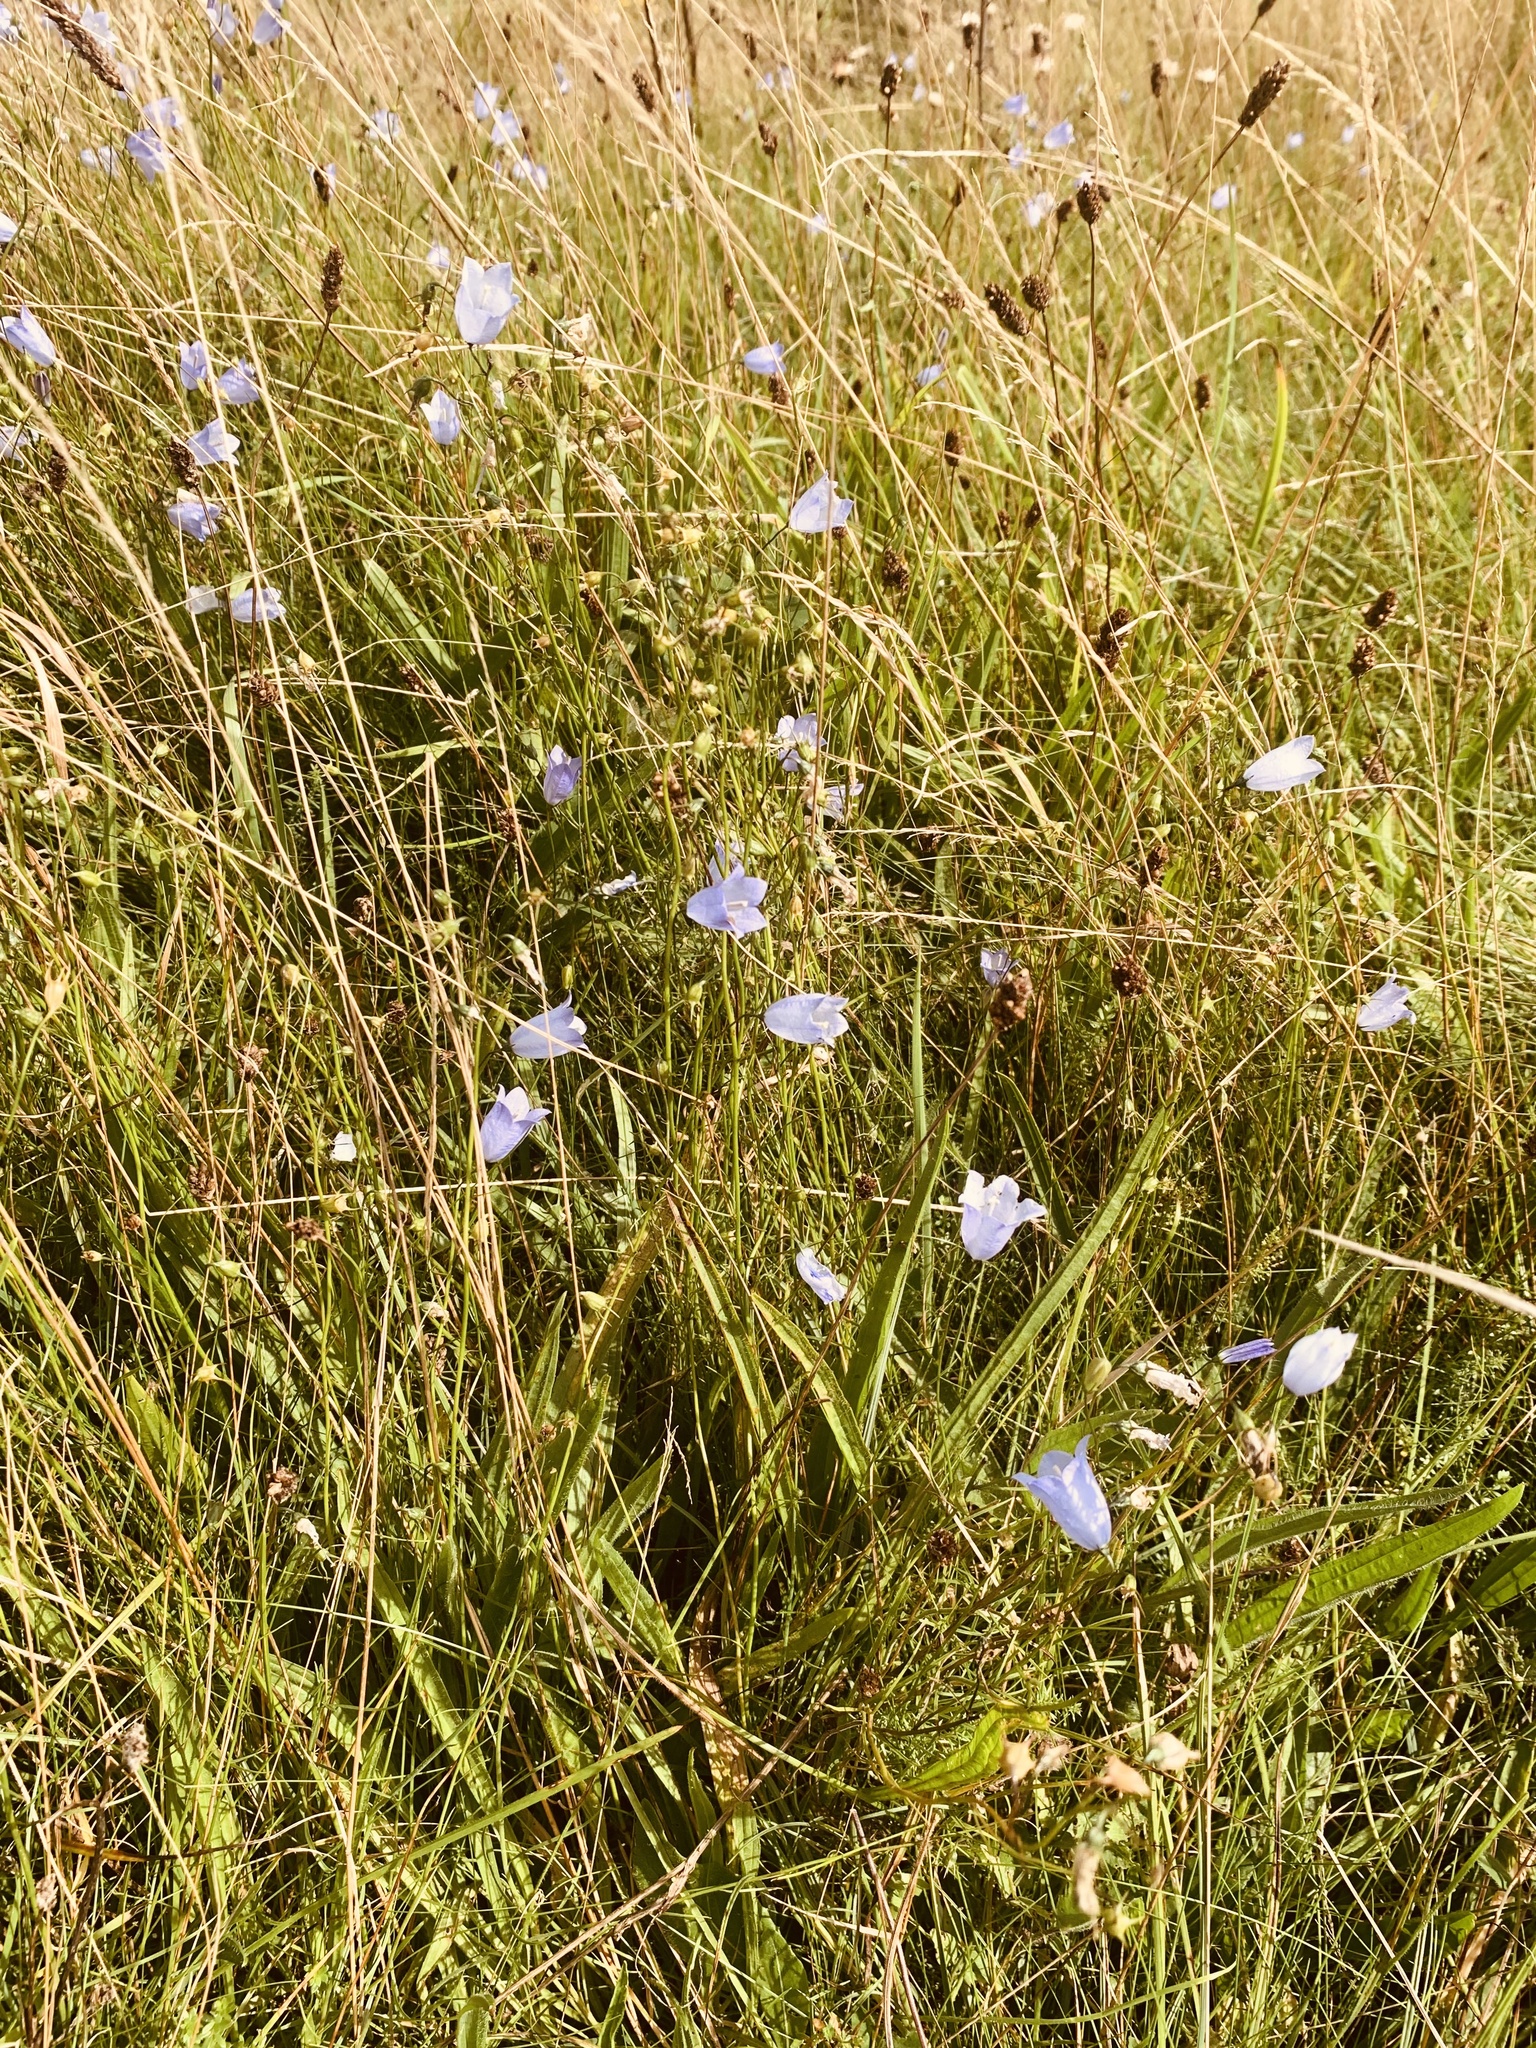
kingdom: Plantae
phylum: Tracheophyta
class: Magnoliopsida
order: Asterales
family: Campanulaceae
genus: Campanula
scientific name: Campanula rotundifolia
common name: Harebell
